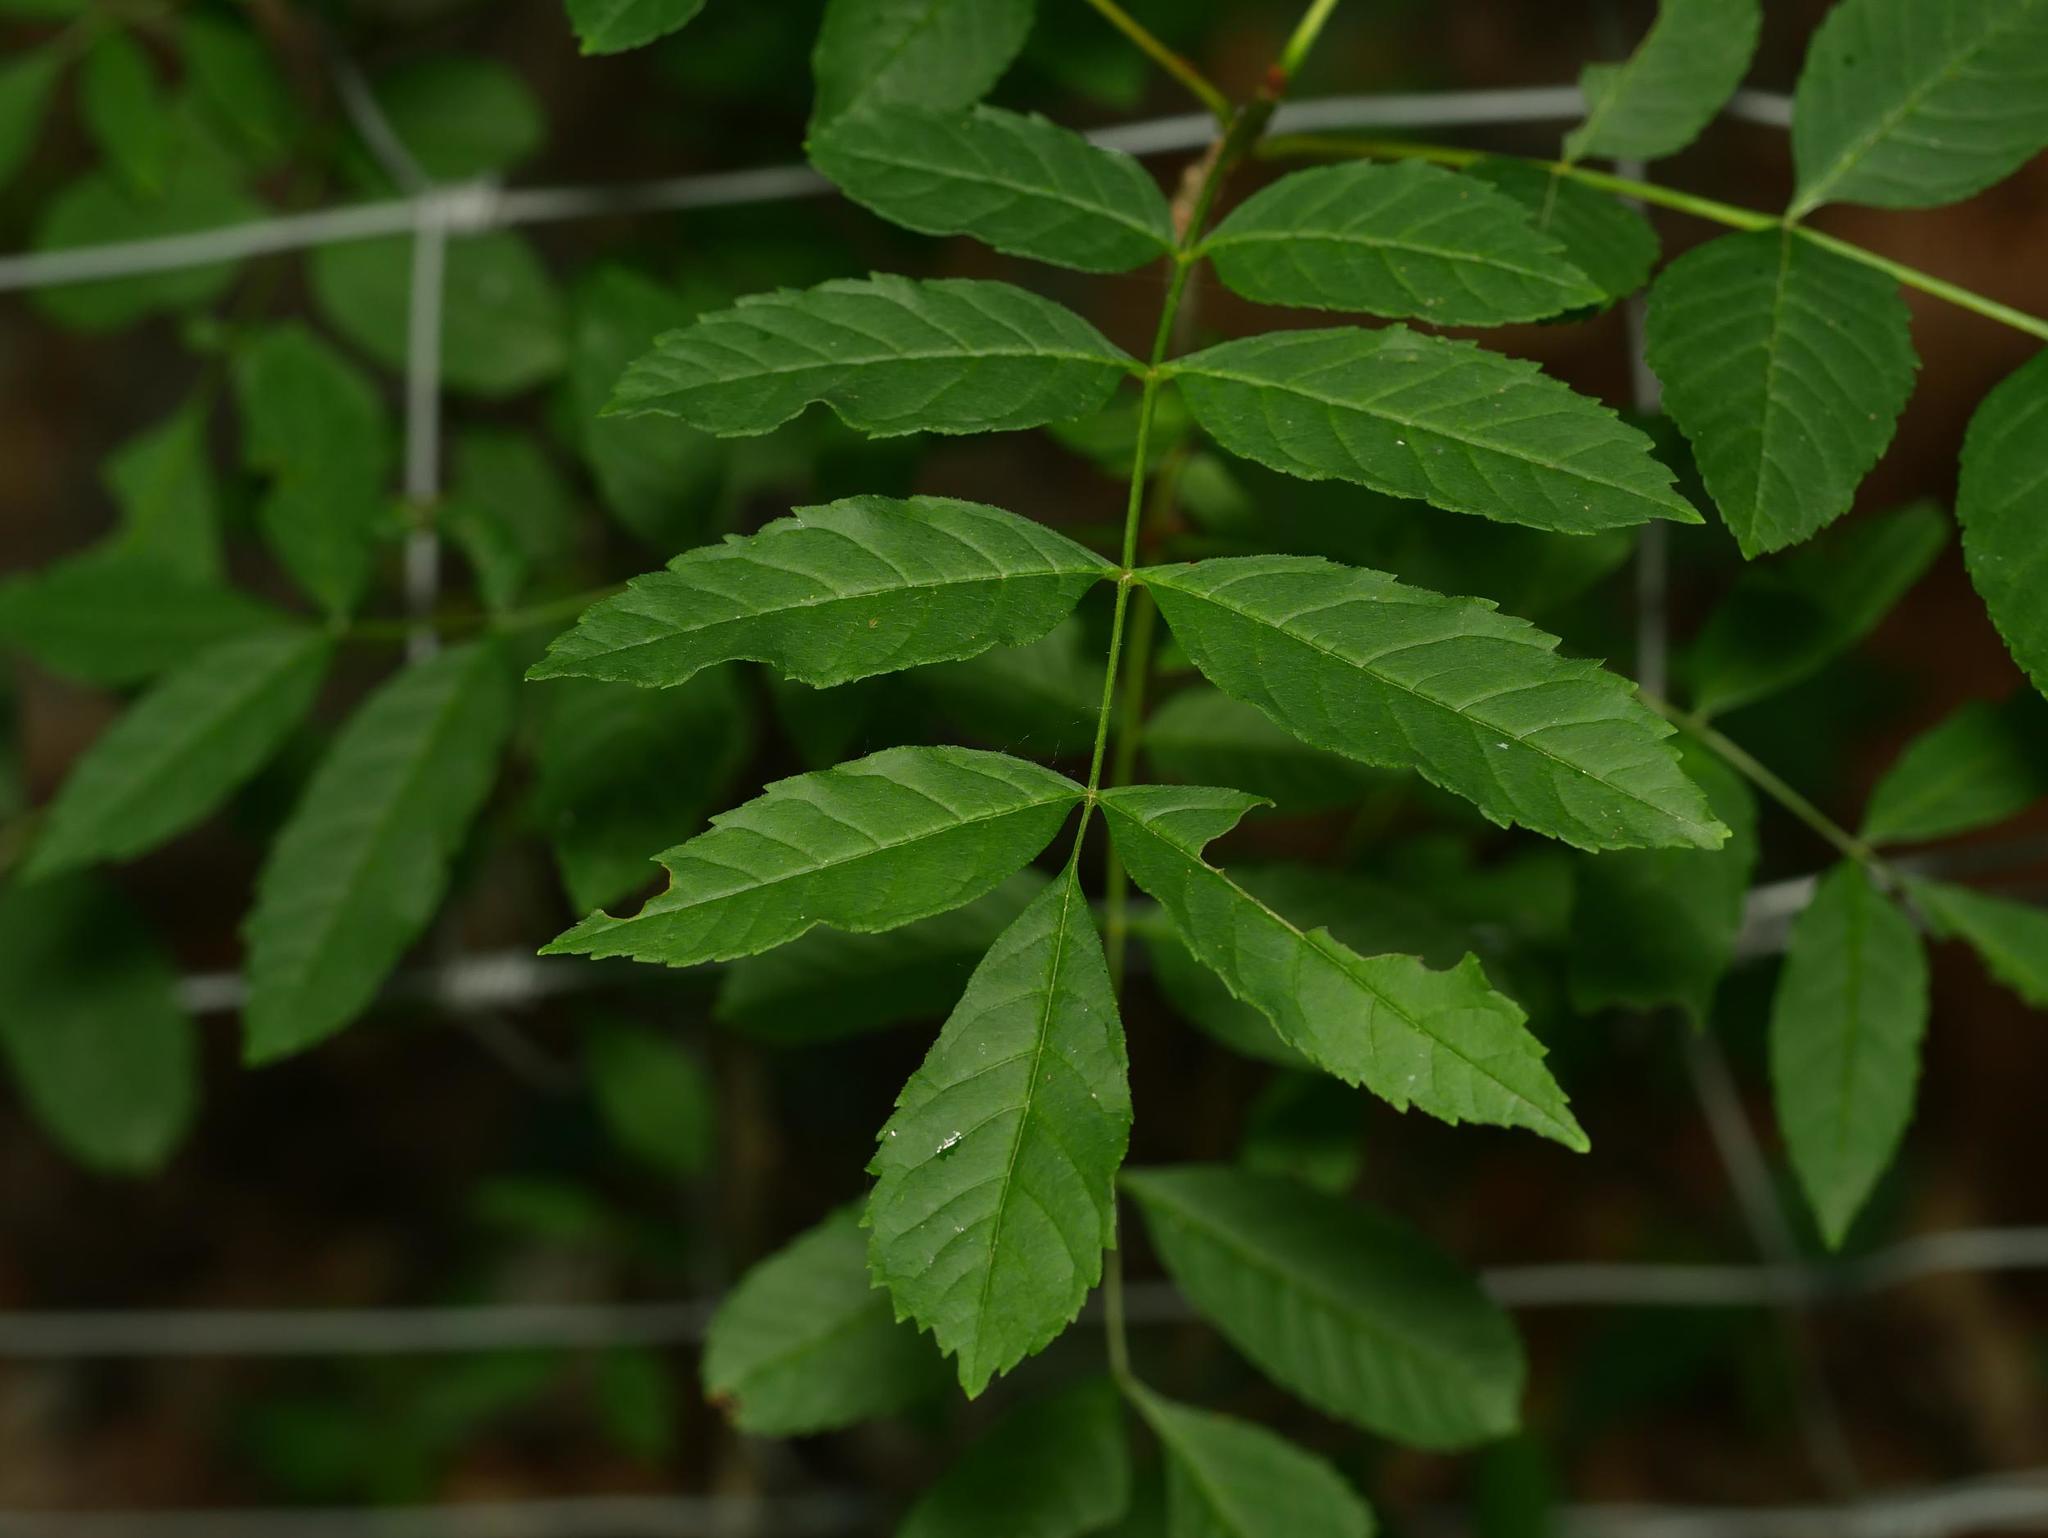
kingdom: Plantae
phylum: Tracheophyta
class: Magnoliopsida
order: Lamiales
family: Oleaceae
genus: Fraxinus
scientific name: Fraxinus excelsior
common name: European ash
